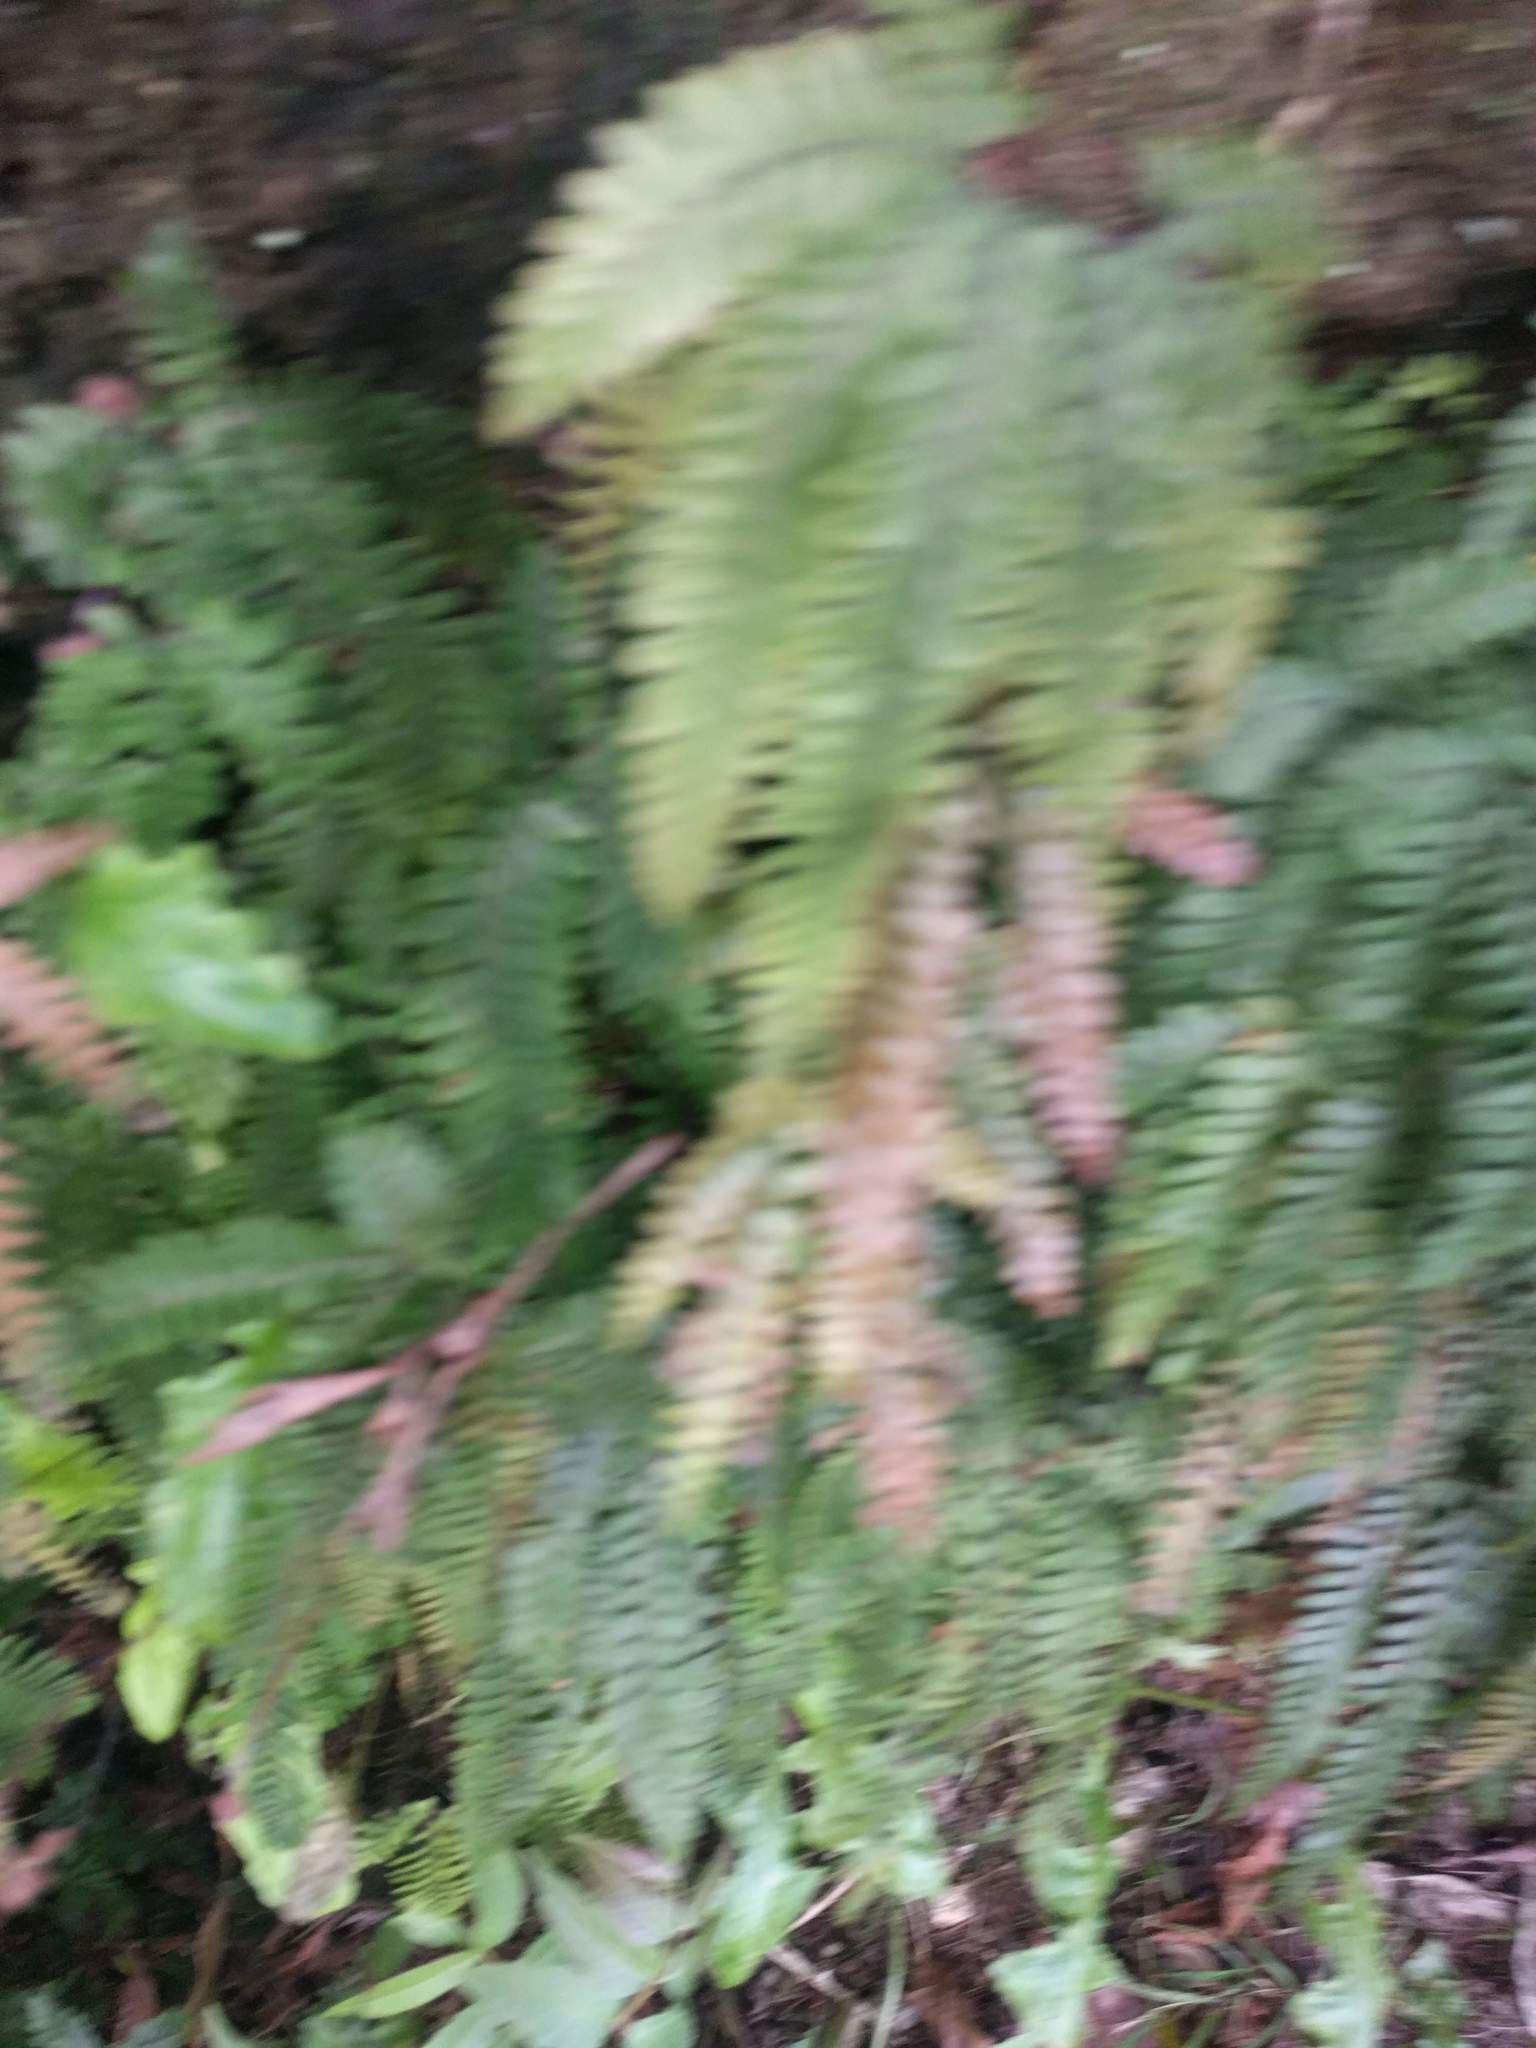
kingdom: Plantae
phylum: Tracheophyta
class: Polypodiopsida
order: Polypodiales
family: Pteridaceae
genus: Adiantum
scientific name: Adiantum hispidulum
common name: Rough maidenhair
